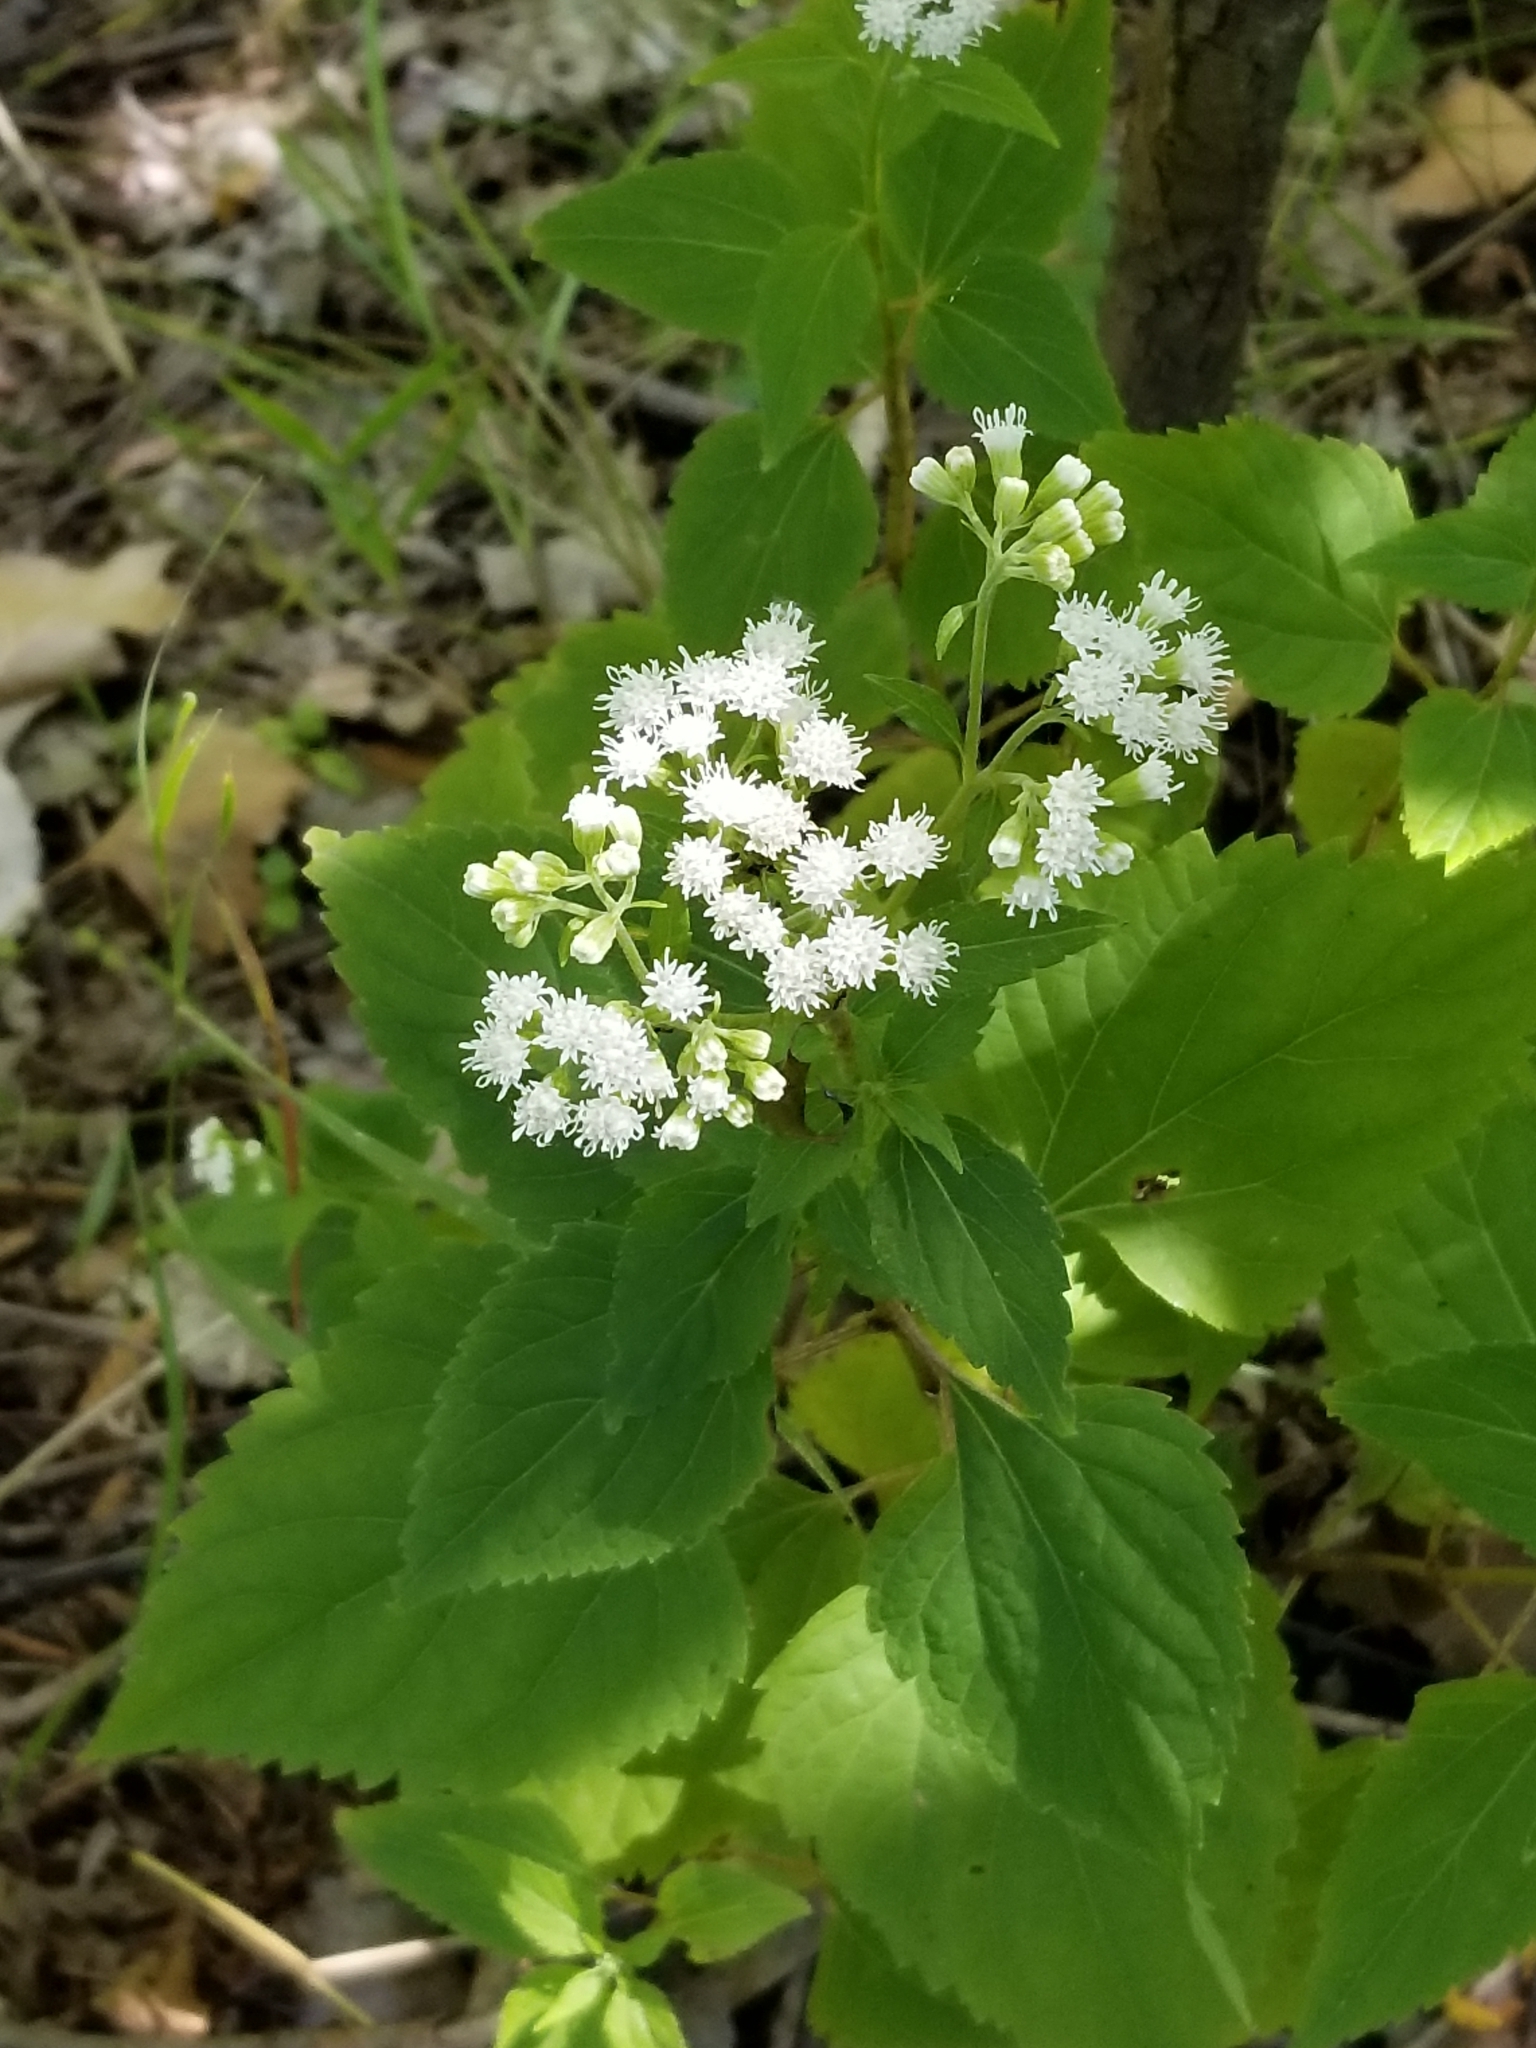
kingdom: Plantae
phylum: Tracheophyta
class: Magnoliopsida
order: Asterales
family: Asteraceae
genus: Ageratina
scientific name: Ageratina altissima
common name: White snakeroot
